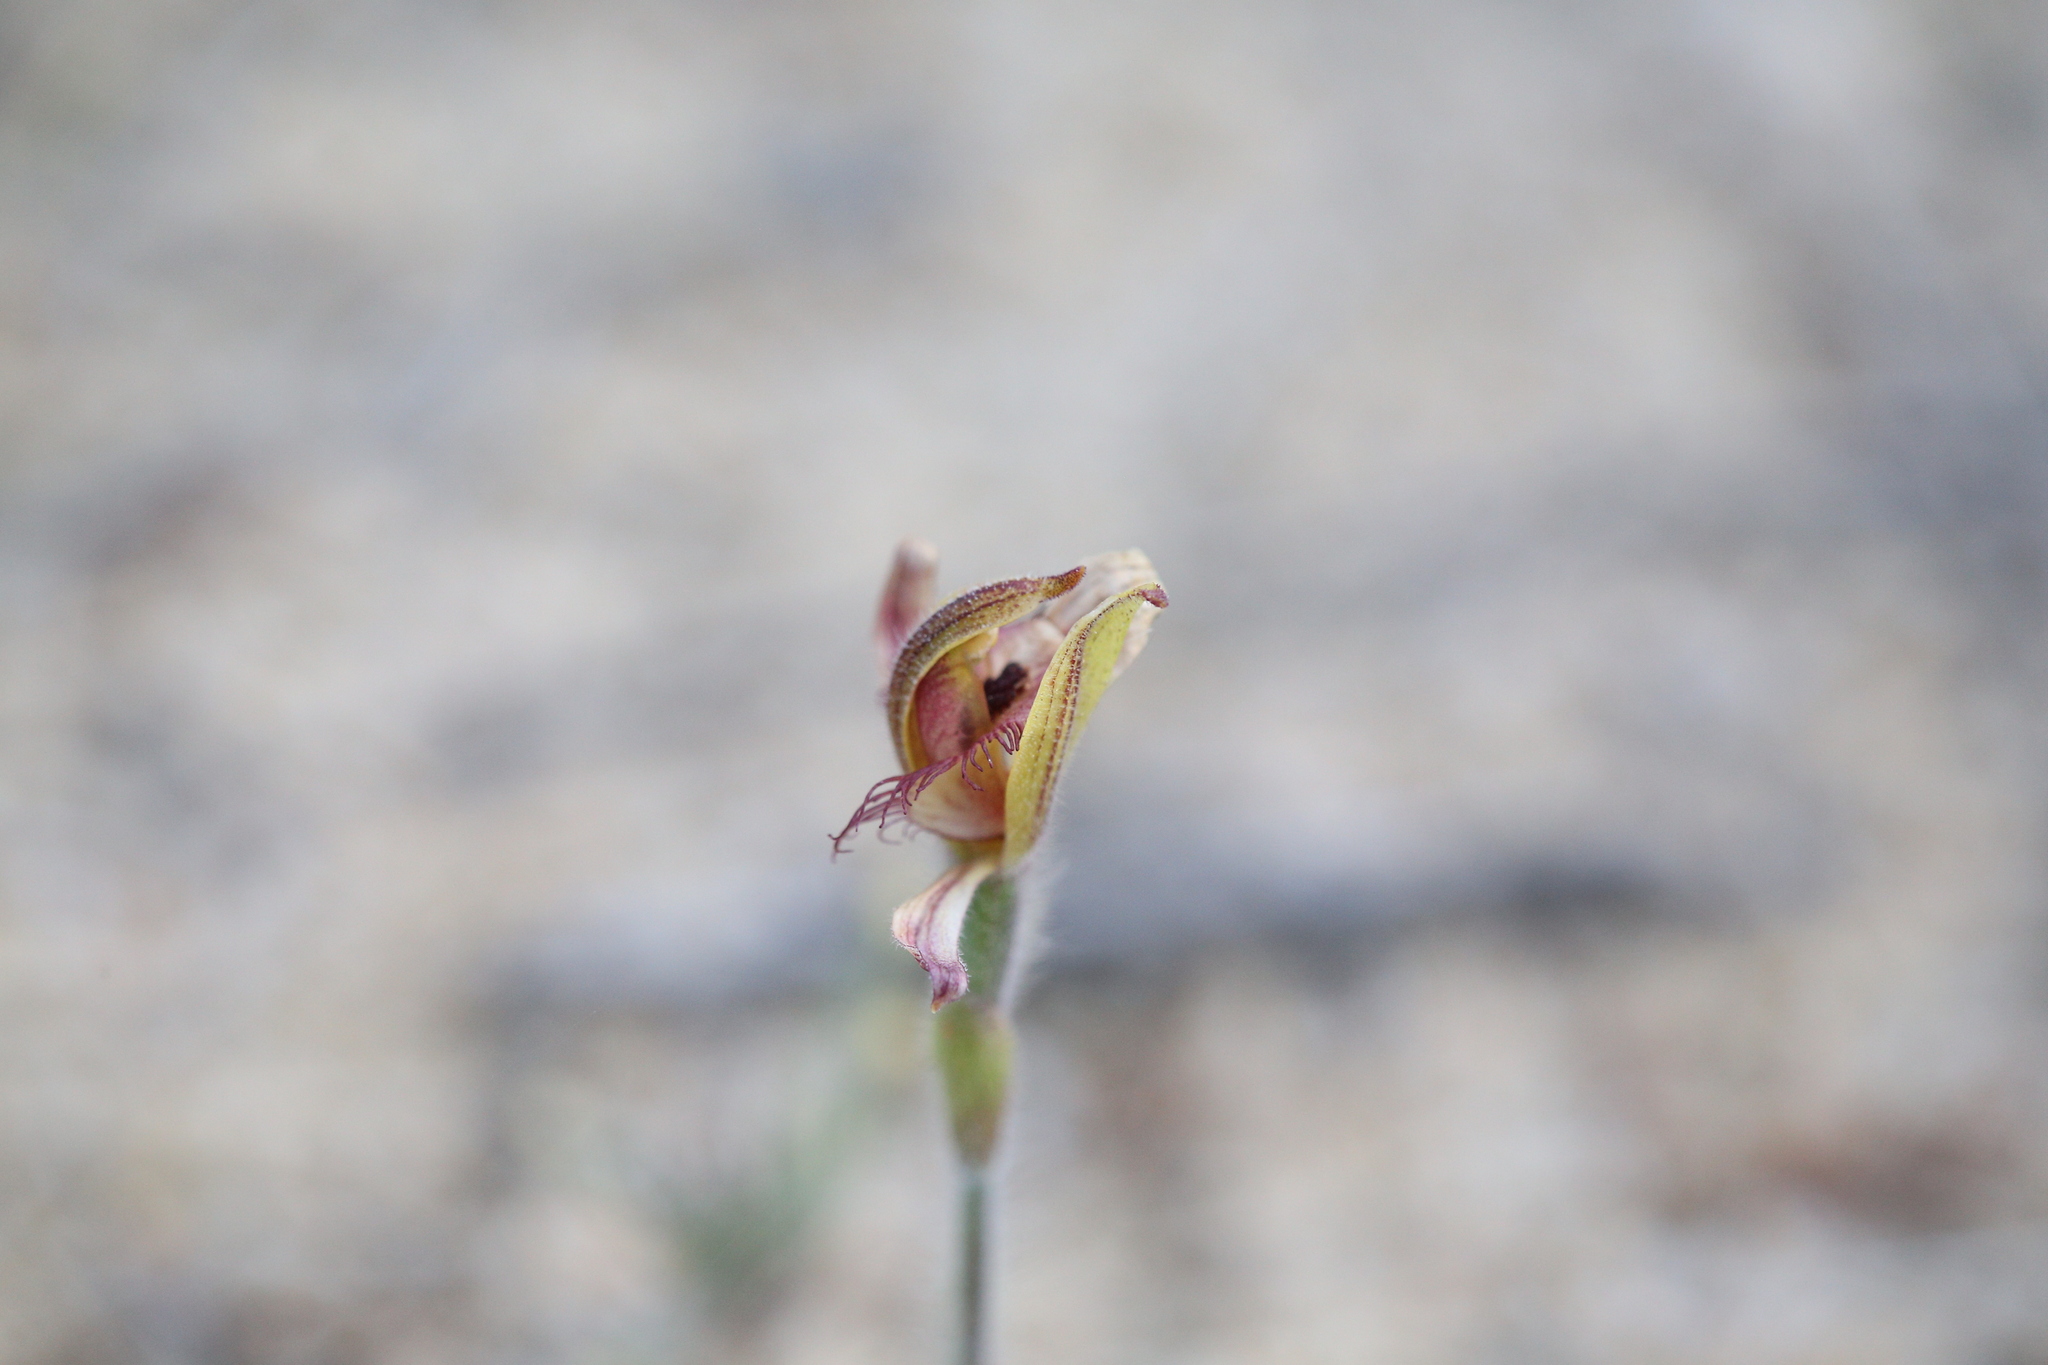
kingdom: Plantae
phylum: Tracheophyta
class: Liliopsida
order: Asparagales
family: Orchidaceae
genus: Caladenia
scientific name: Caladenia discoidea
